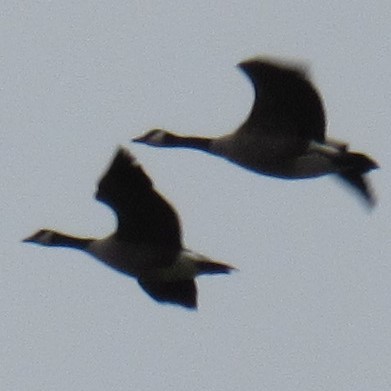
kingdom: Animalia
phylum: Chordata
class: Aves
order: Anseriformes
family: Anatidae
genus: Branta
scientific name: Branta canadensis
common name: Canada goose
